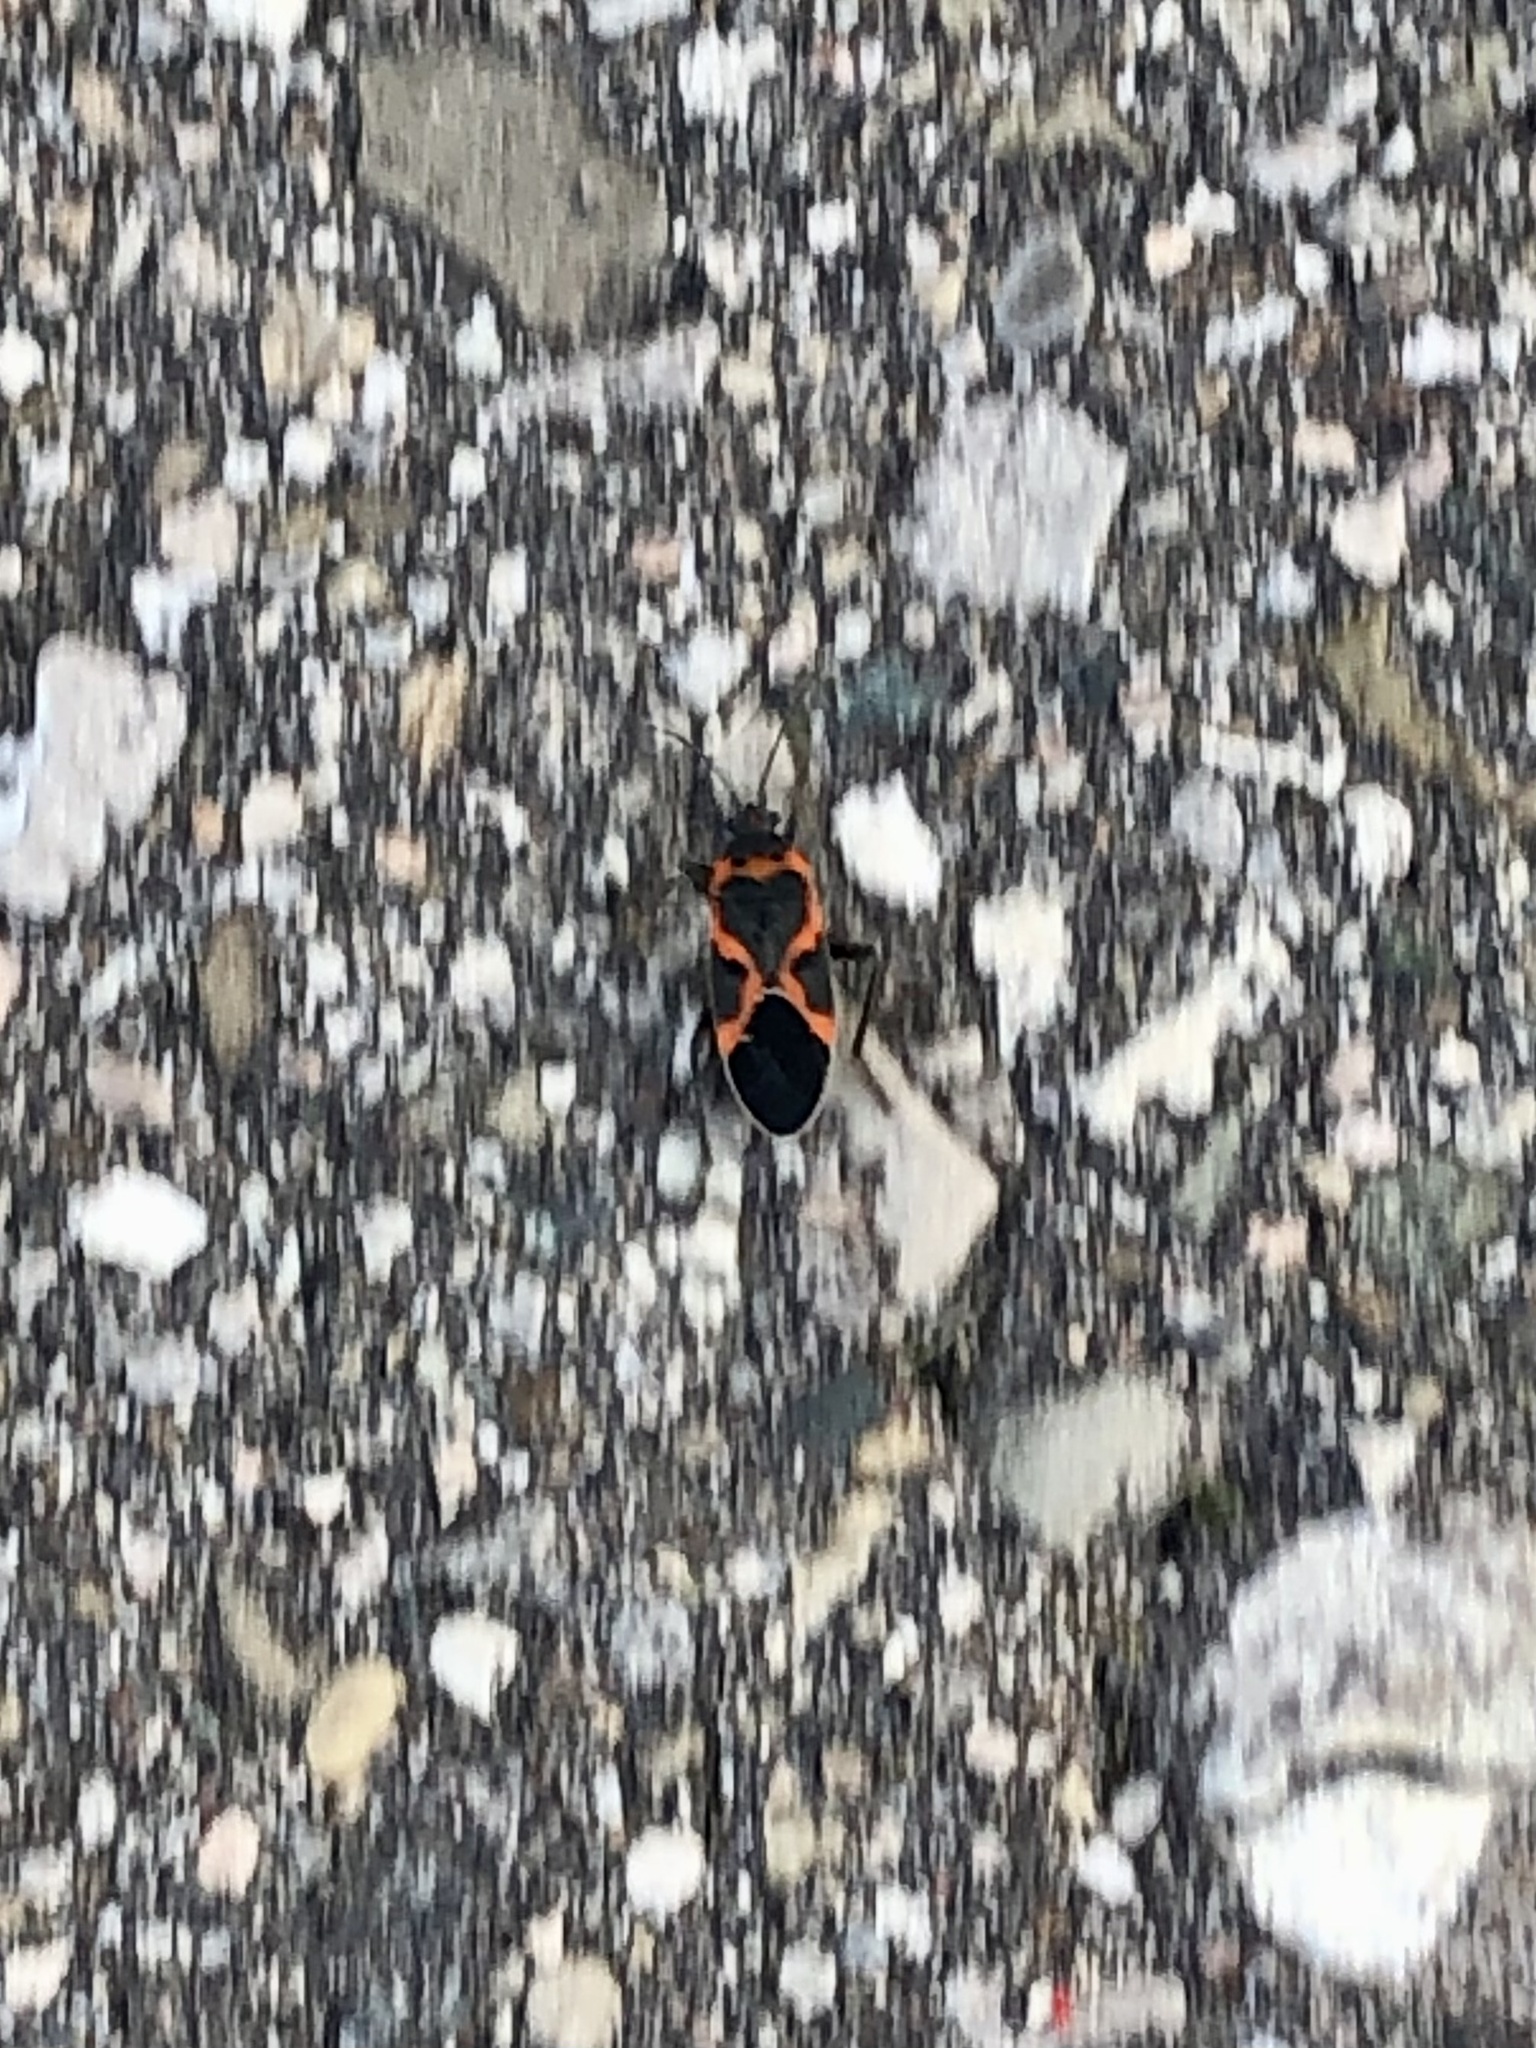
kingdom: Animalia
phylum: Arthropoda
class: Insecta
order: Hemiptera
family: Lygaeidae
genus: Lygaeus
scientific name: Lygaeus kalmii
